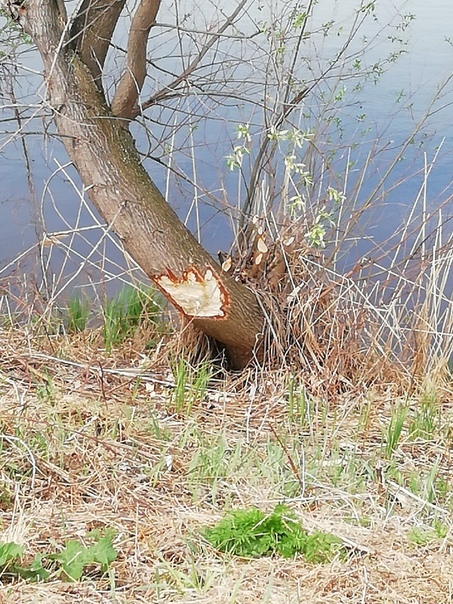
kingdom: Animalia
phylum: Chordata
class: Mammalia
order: Rodentia
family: Castoridae
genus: Castor
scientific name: Castor fiber
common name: Eurasian beaver
